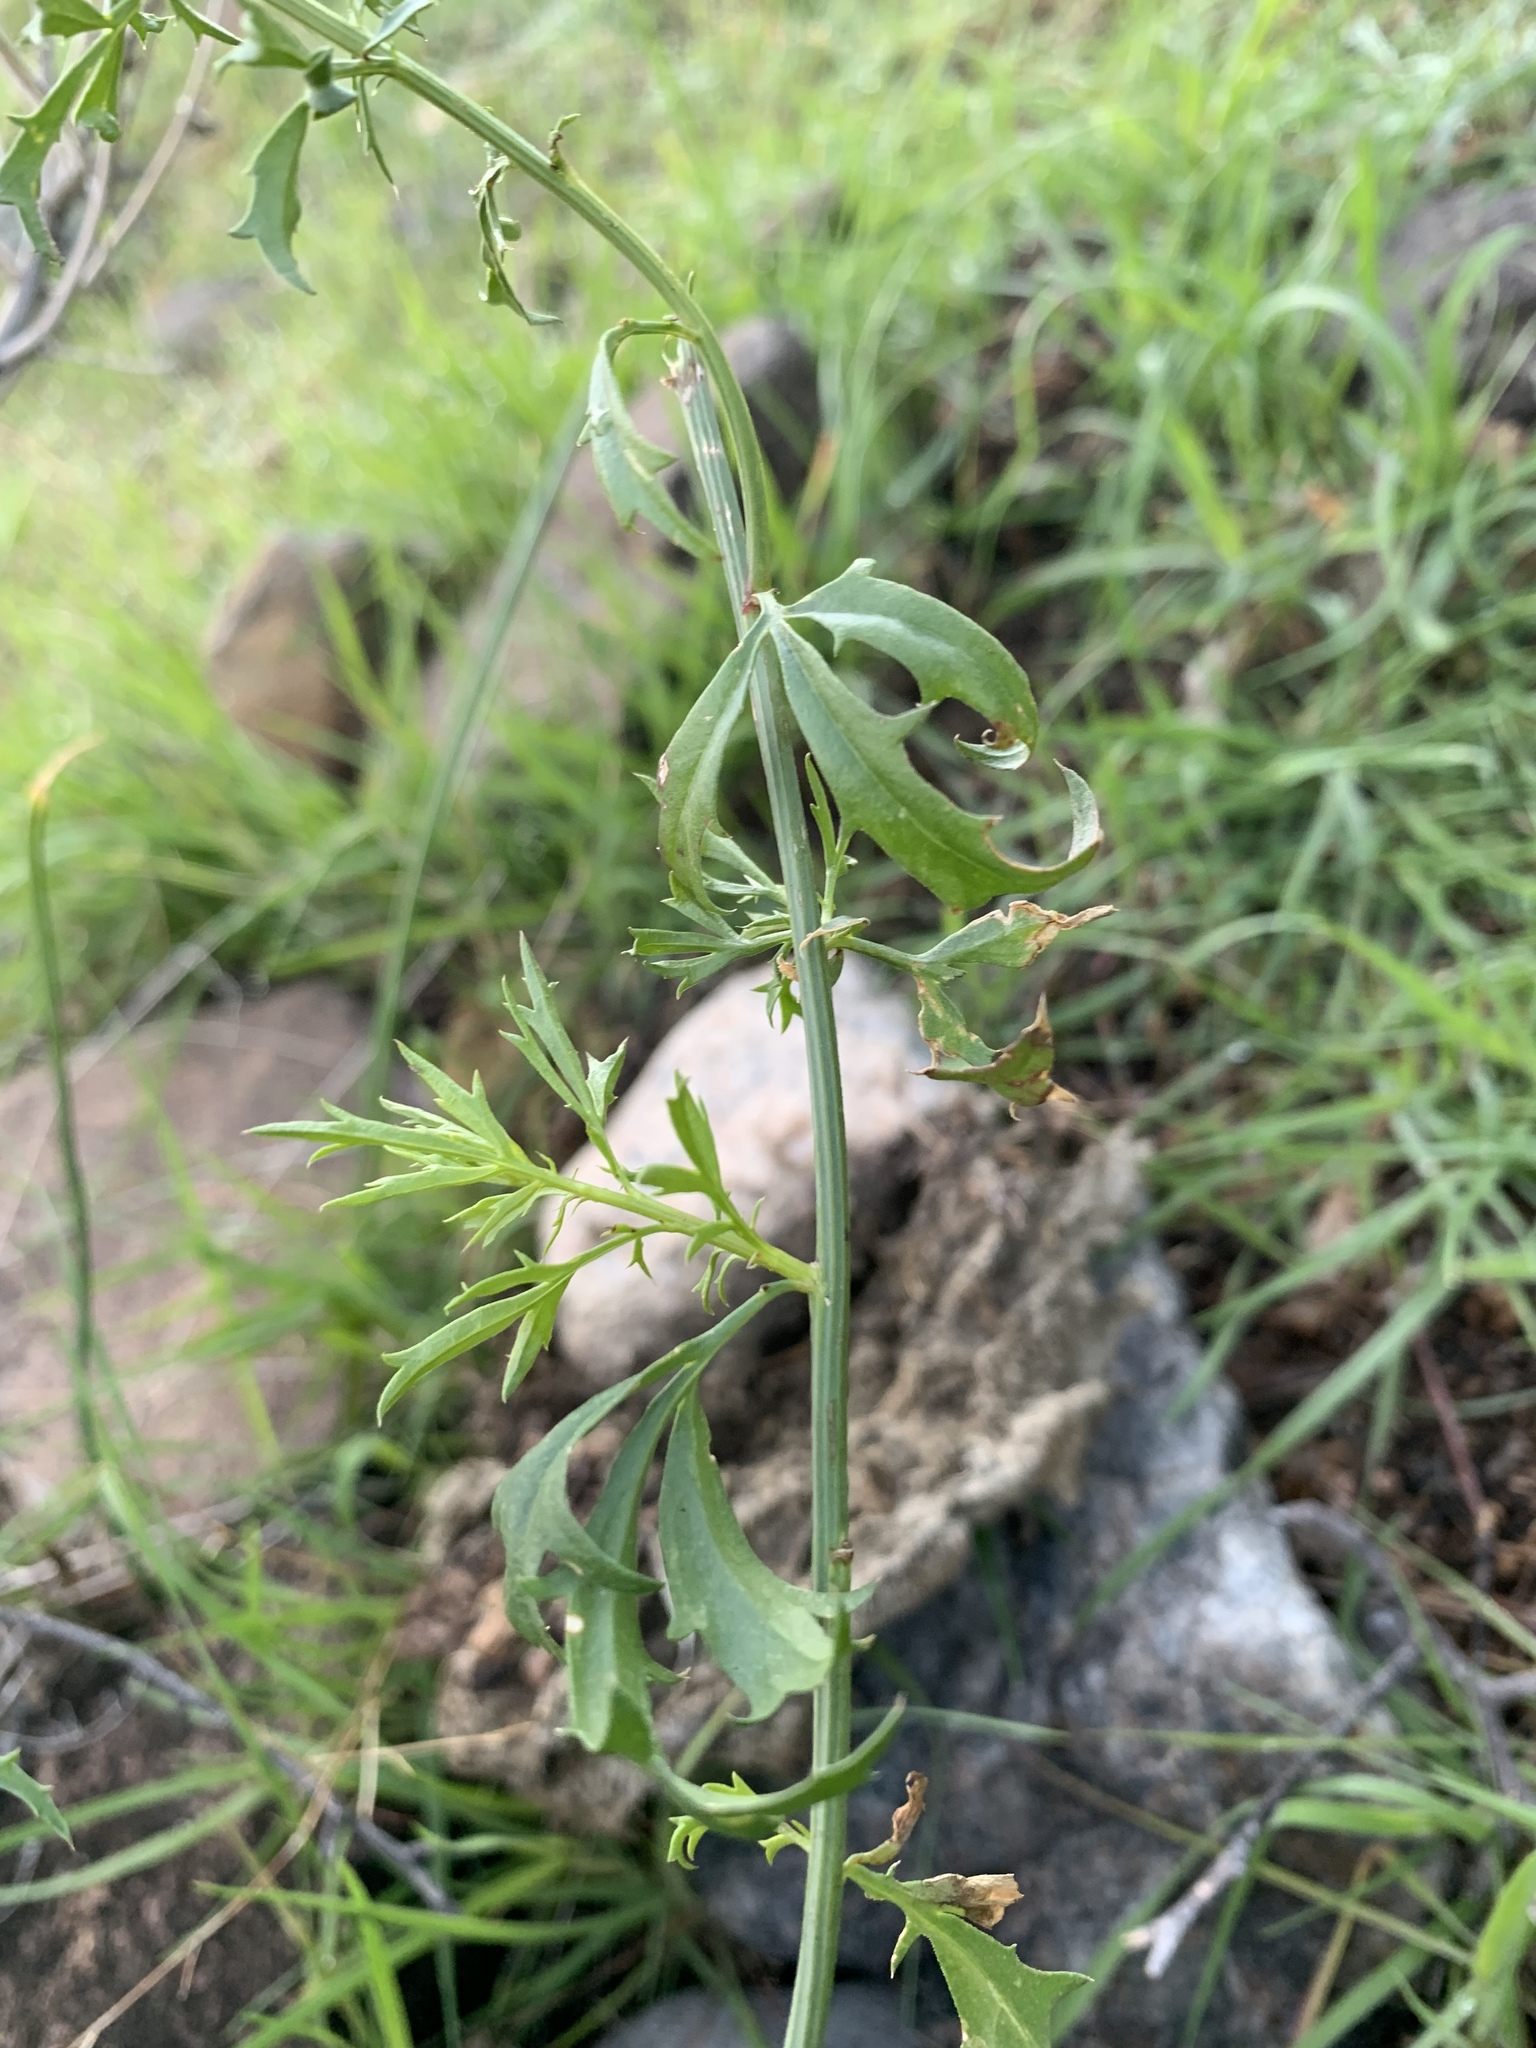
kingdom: Plantae
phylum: Tracheophyta
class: Magnoliopsida
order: Asterales
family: Asteraceae
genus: Adenophyllum
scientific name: Adenophyllum porophylloides
